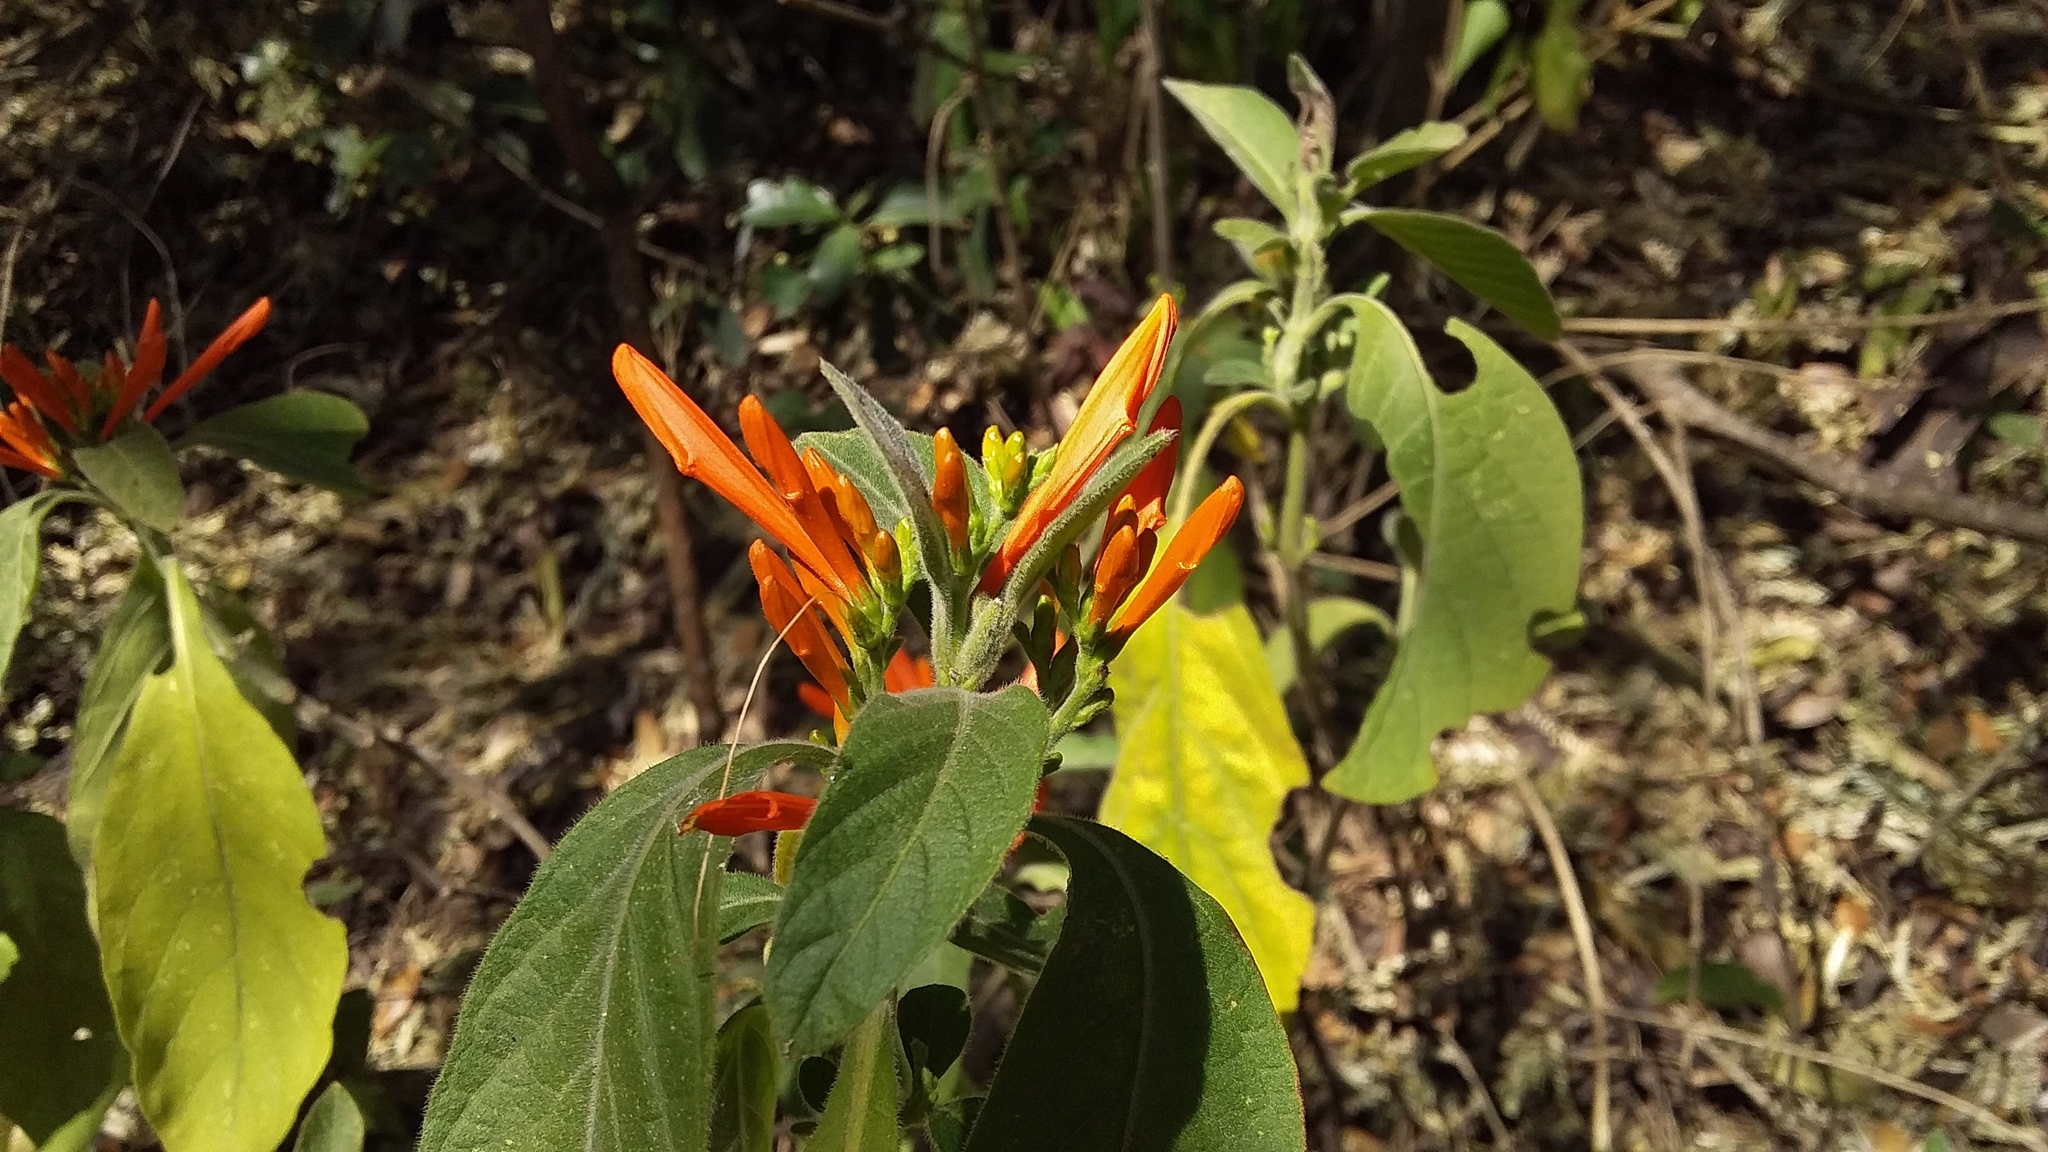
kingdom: Plantae
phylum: Tracheophyta
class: Magnoliopsida
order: Lamiales
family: Acanthaceae
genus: Justicia
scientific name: Justicia spicigera
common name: Mohintli
